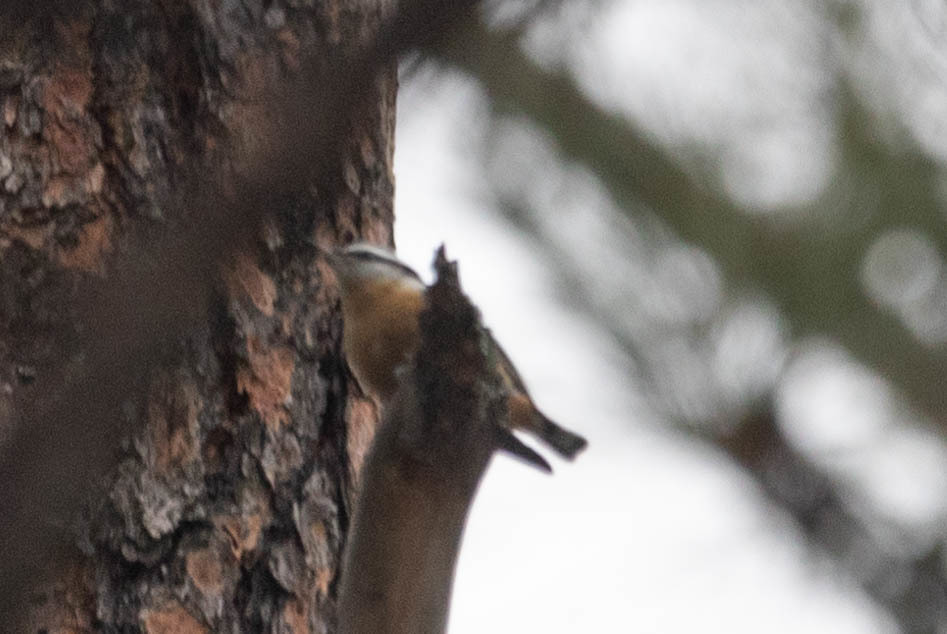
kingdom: Animalia
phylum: Chordata
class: Aves
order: Passeriformes
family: Sittidae
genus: Sitta
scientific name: Sitta canadensis
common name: Red-breasted nuthatch
